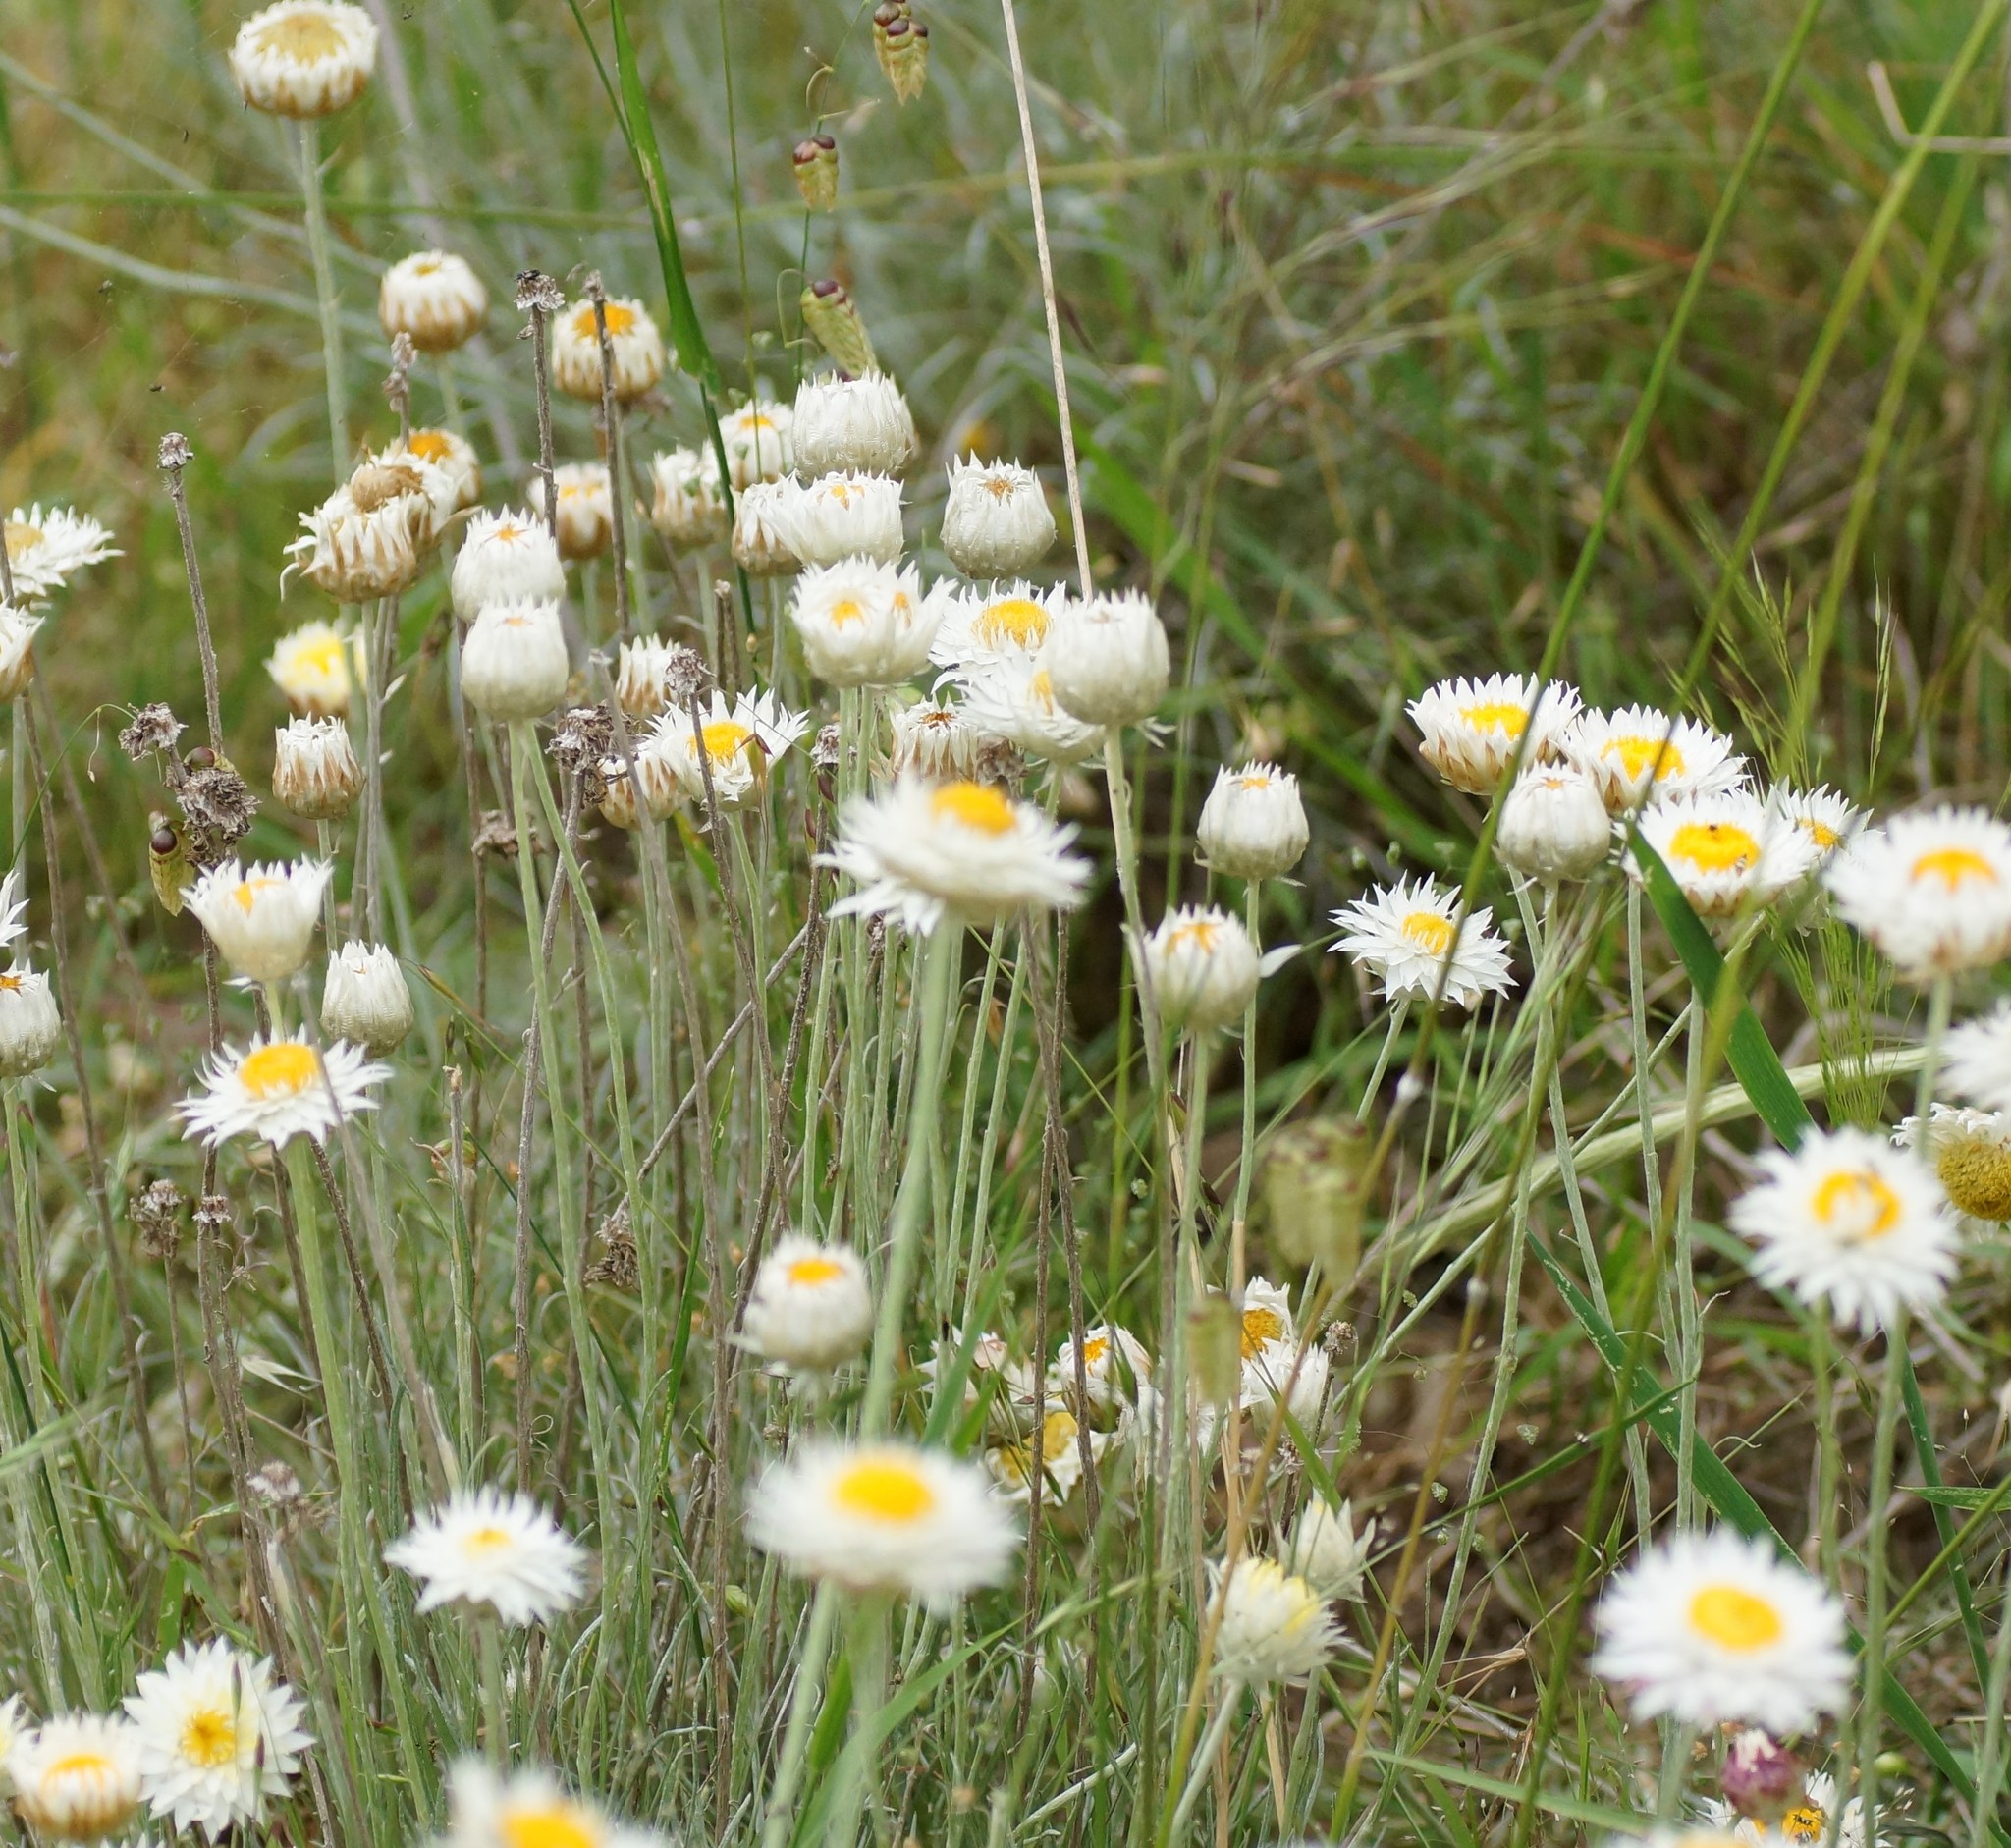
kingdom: Plantae
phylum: Tracheophyta
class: Magnoliopsida
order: Asterales
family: Asteraceae
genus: Leucochrysum
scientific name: Leucochrysum albicans
